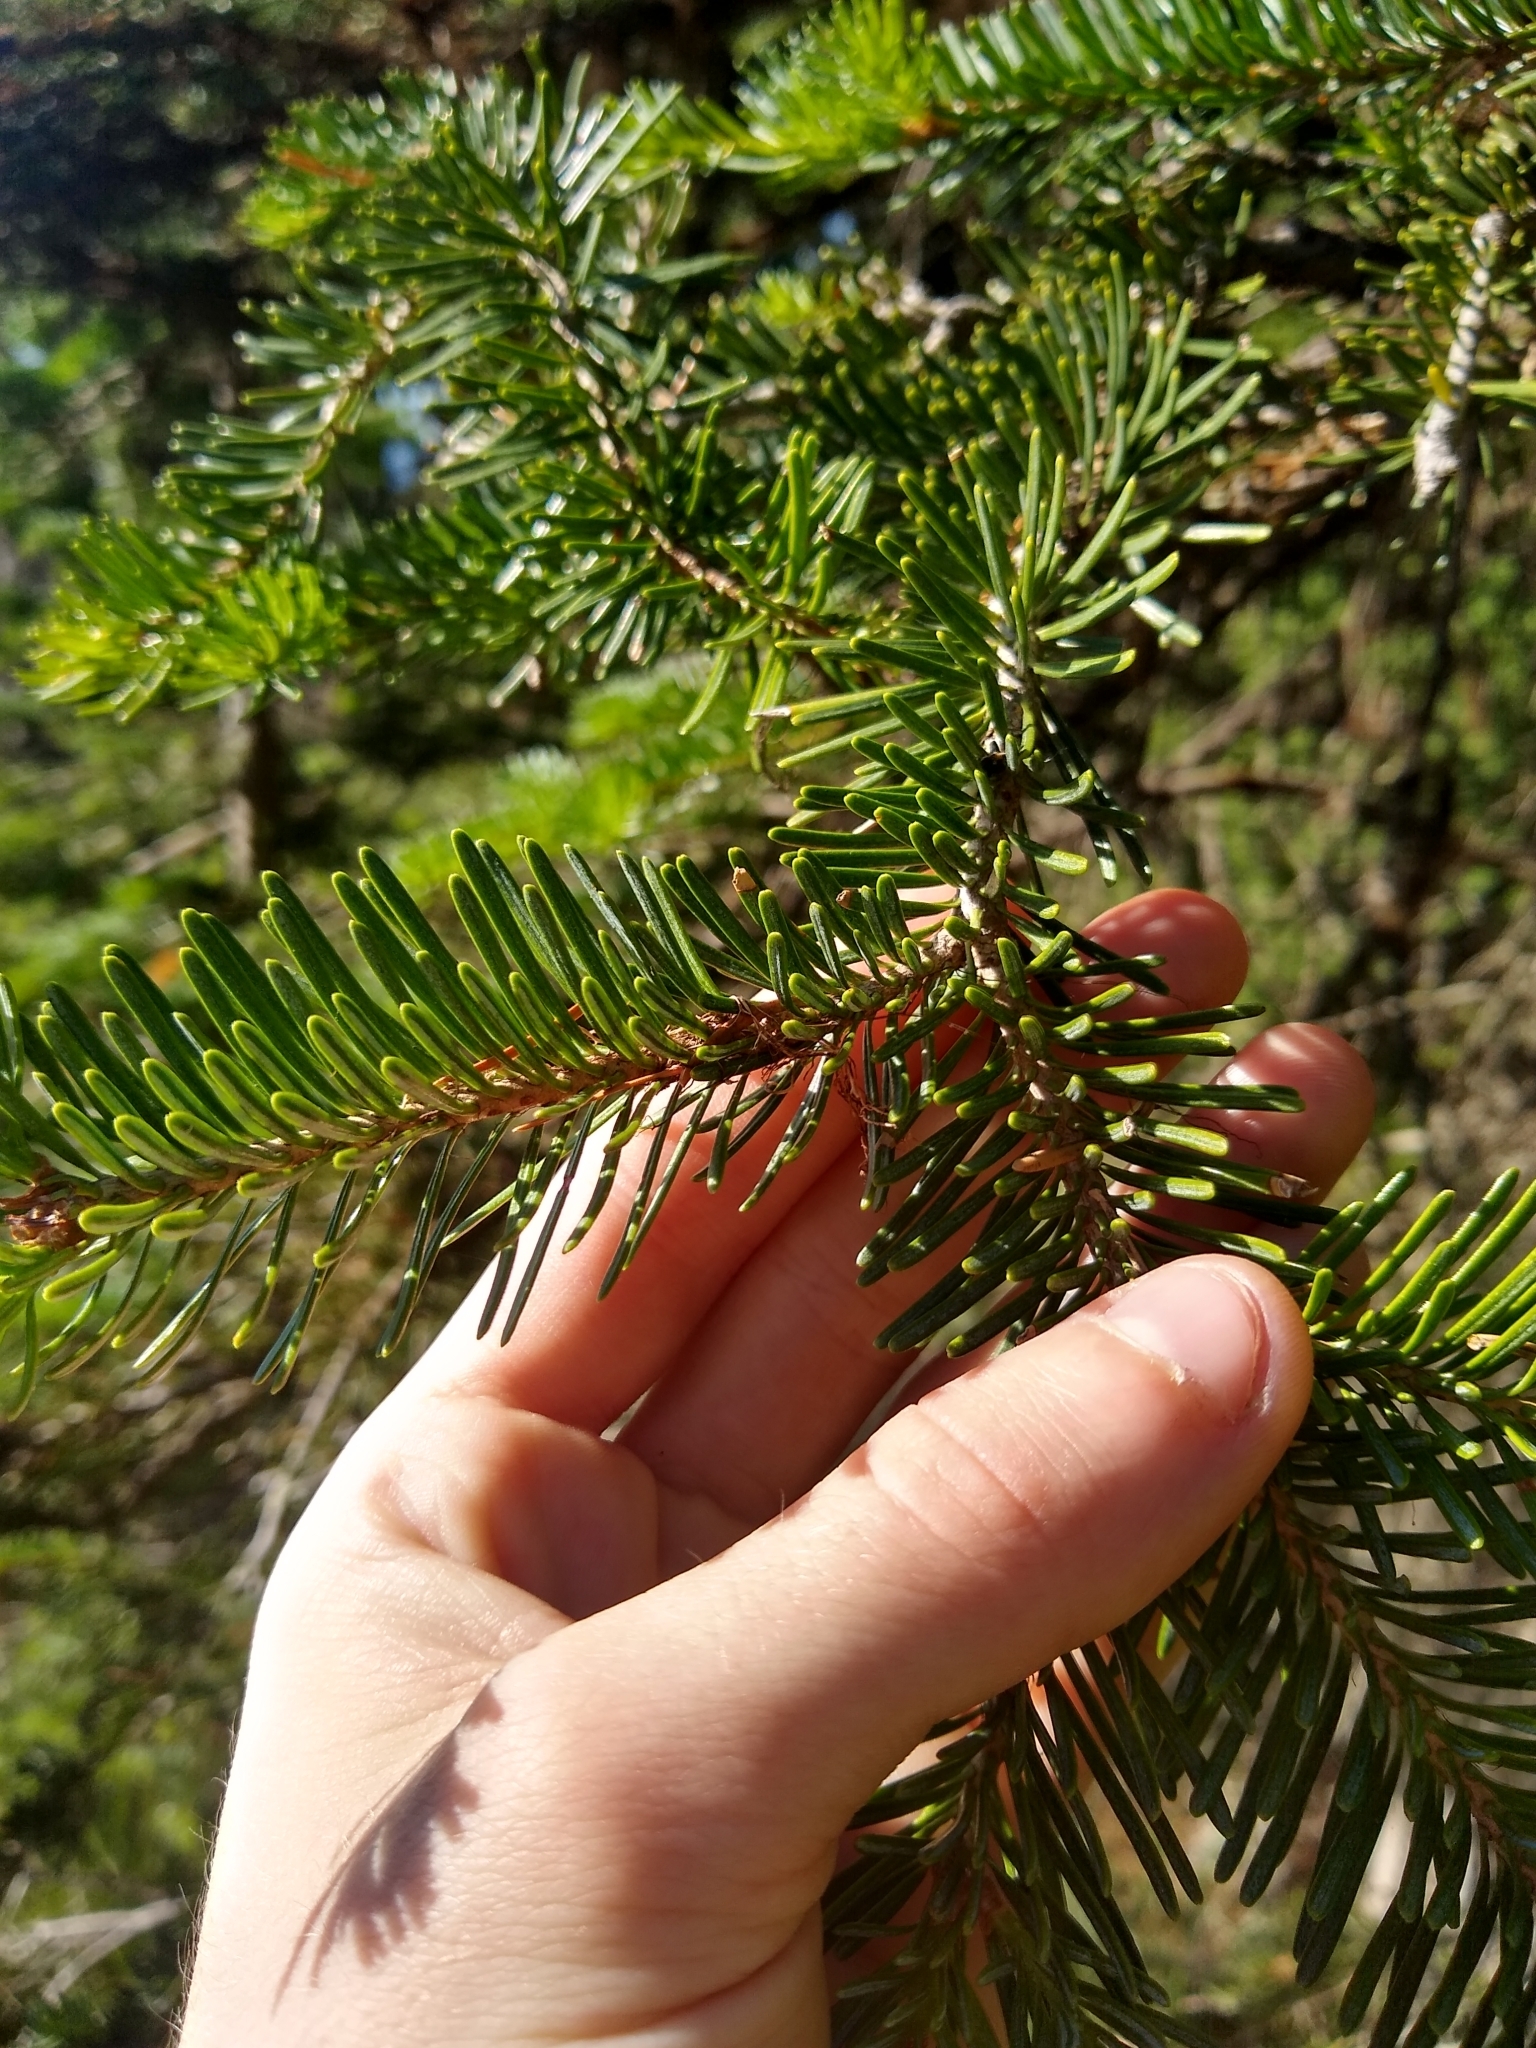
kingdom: Plantae
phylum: Tracheophyta
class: Pinopsida
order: Pinales
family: Pinaceae
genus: Abies
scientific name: Abies lasiocarpa
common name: Subalpine fir
